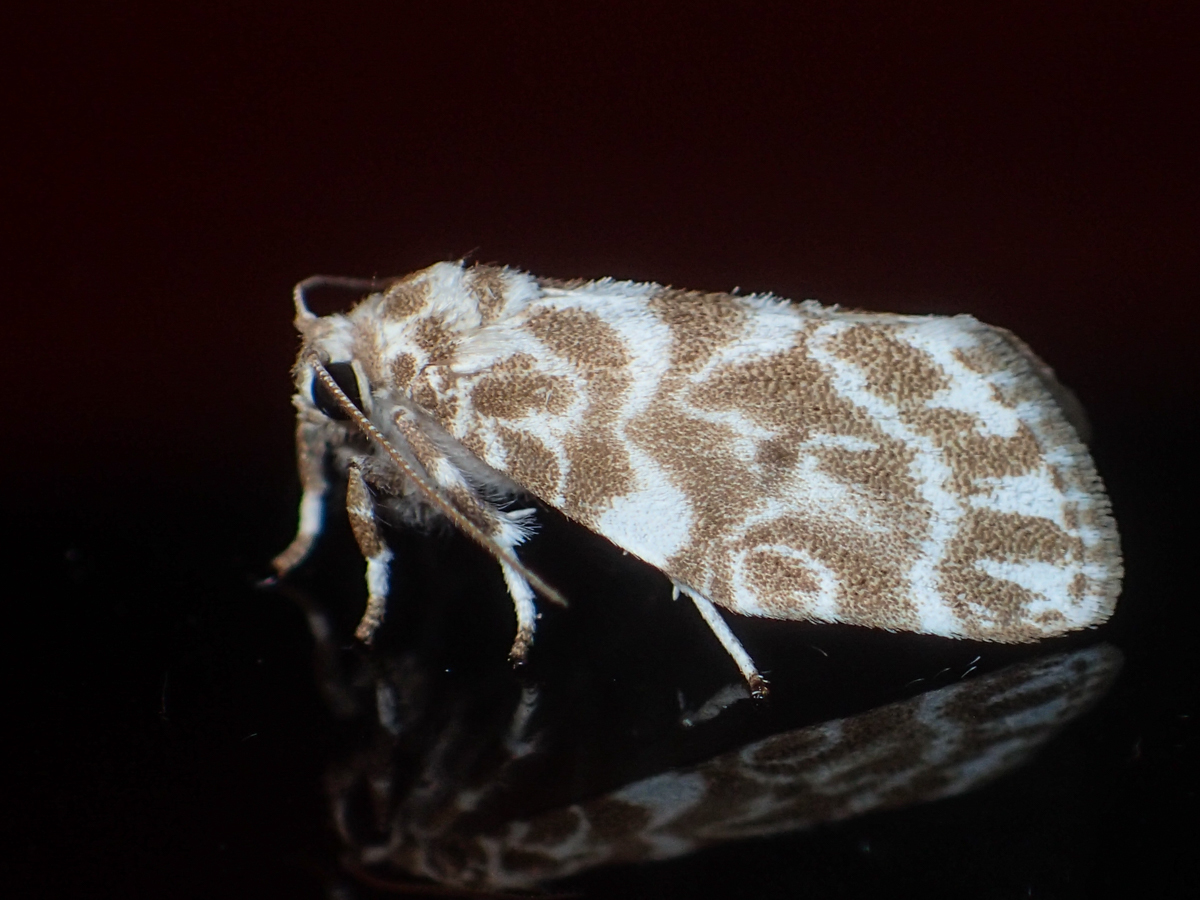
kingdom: Animalia
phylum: Arthropoda
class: Insecta
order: Lepidoptera
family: Erebidae
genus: Cabarda
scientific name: Cabarda sequens
